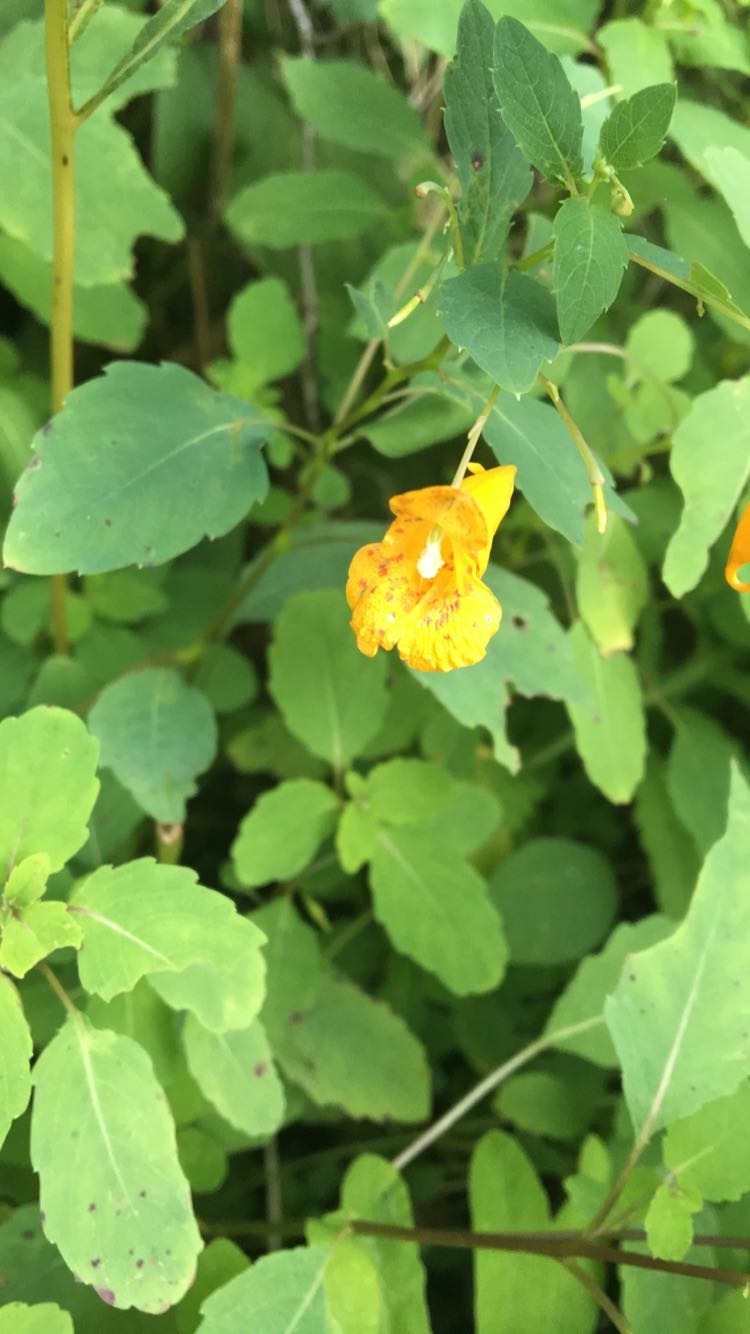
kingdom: Plantae
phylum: Tracheophyta
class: Magnoliopsida
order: Ericales
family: Balsaminaceae
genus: Impatiens
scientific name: Impatiens capensis
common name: Orange balsam
